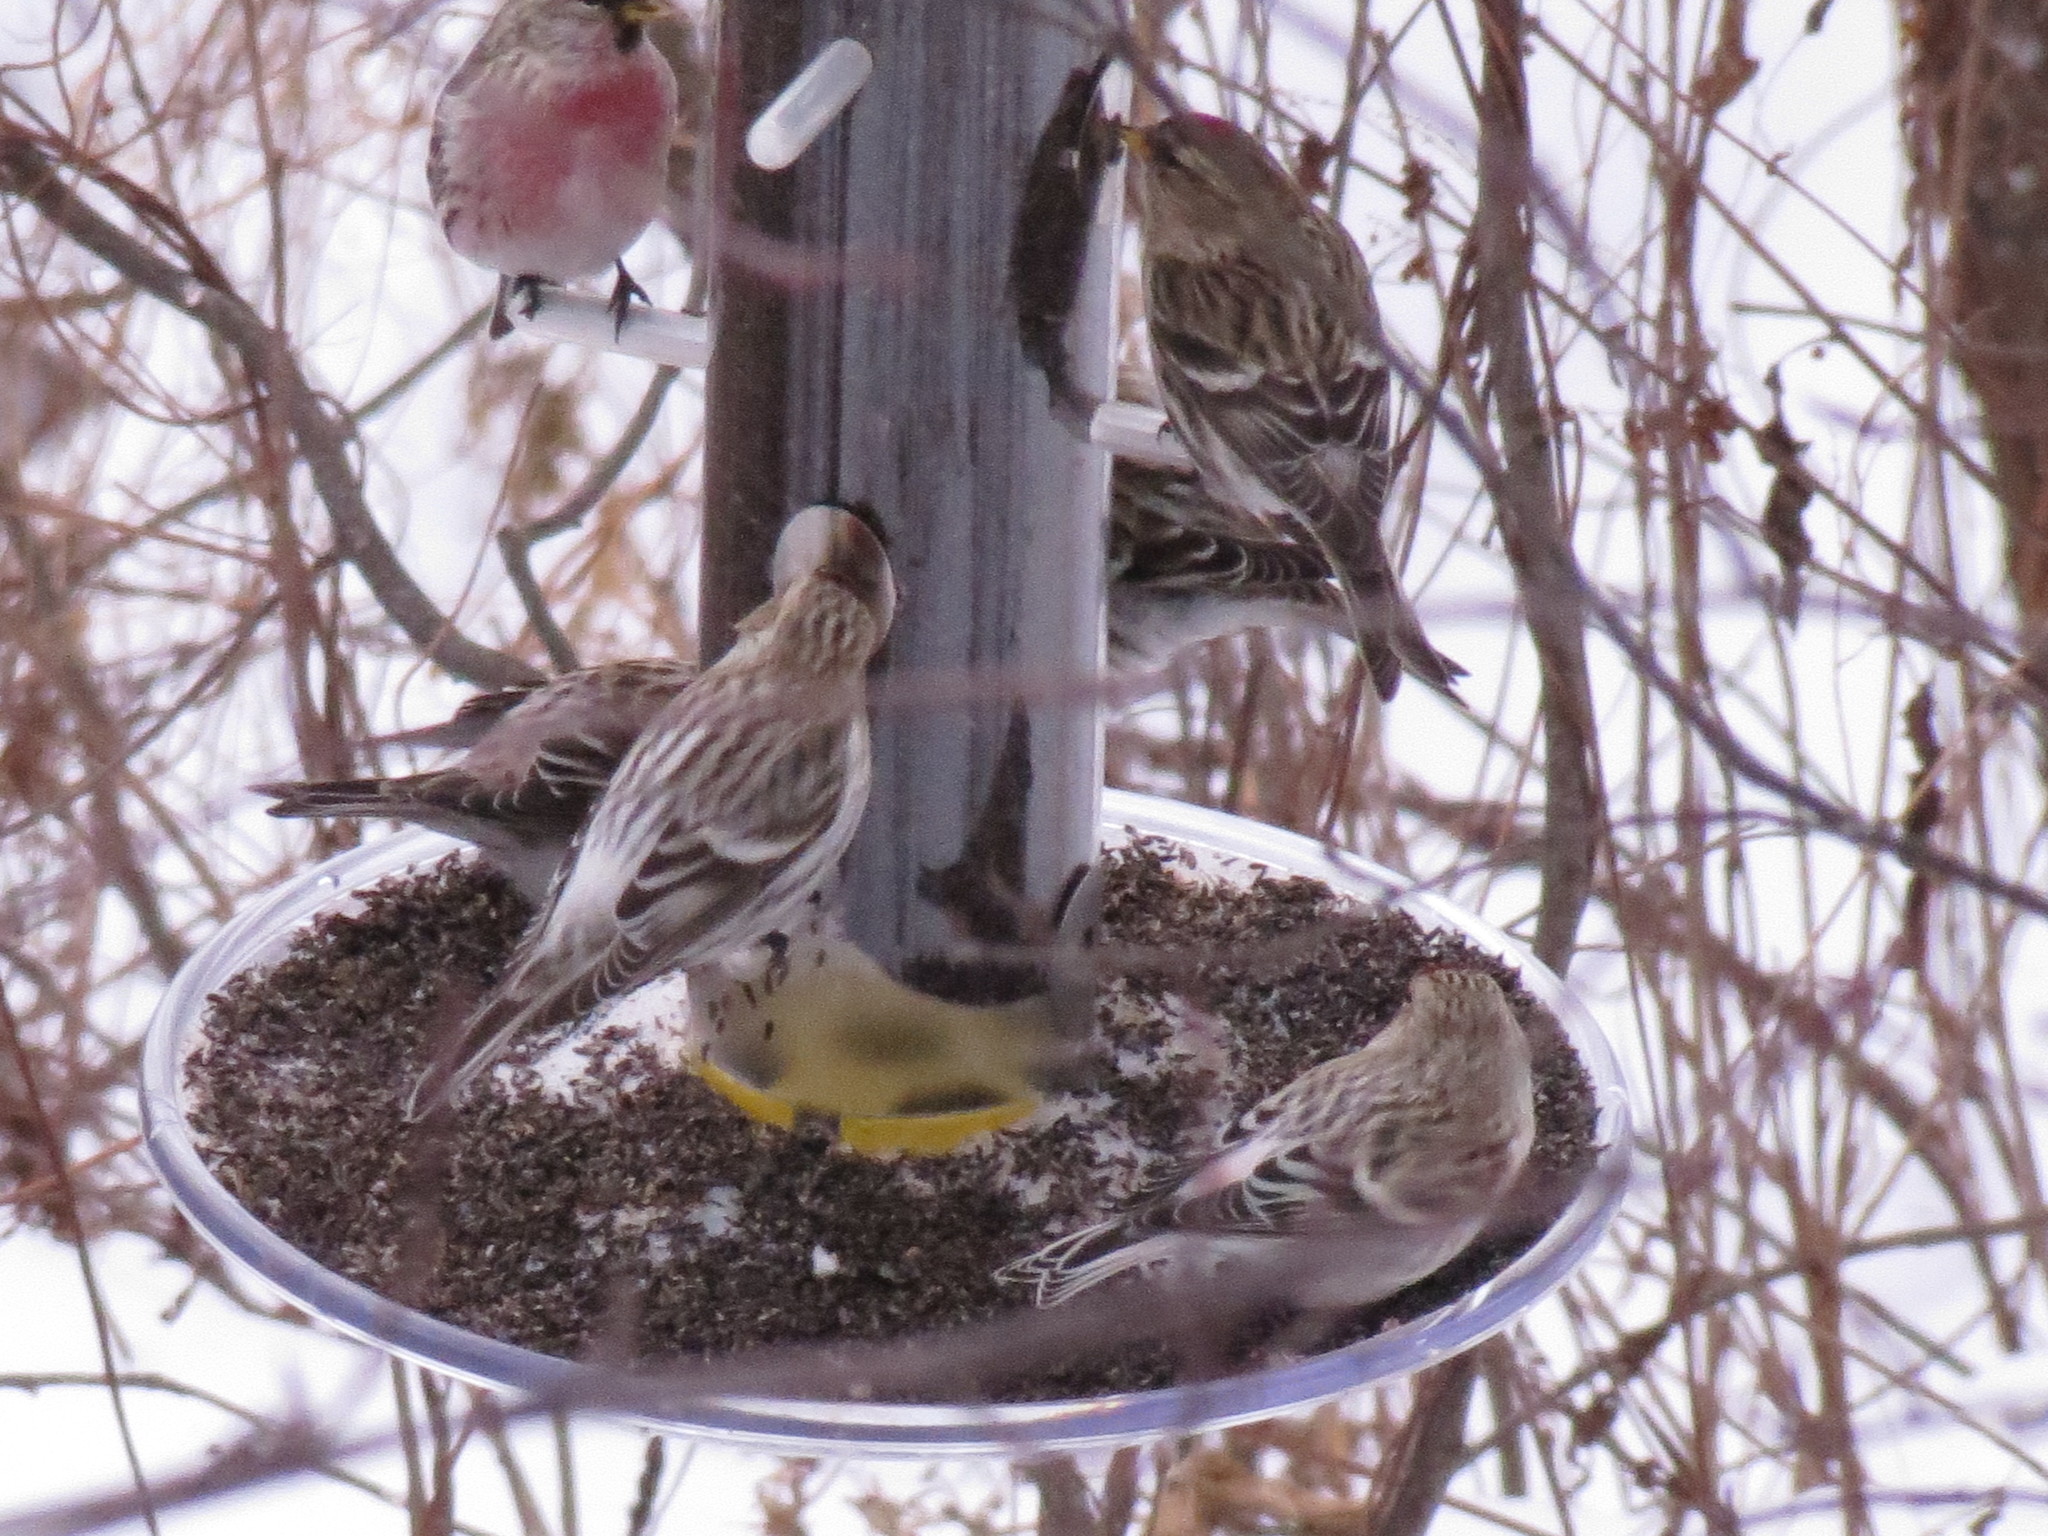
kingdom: Animalia
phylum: Chordata
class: Aves
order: Passeriformes
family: Fringillidae
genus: Acanthis
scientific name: Acanthis hornemanni
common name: Arctic redpoll
